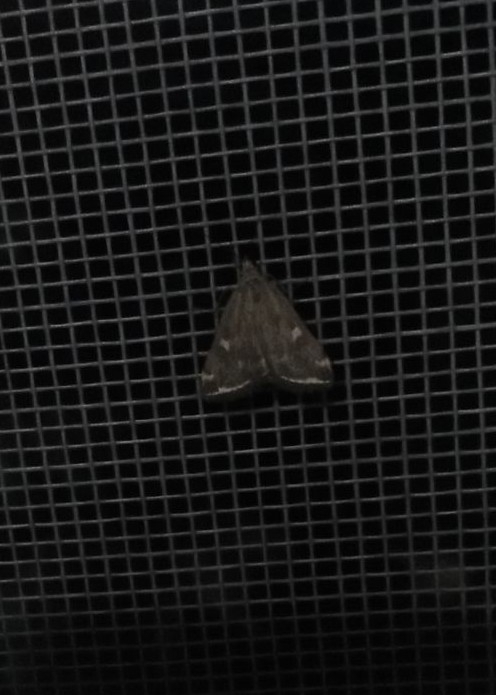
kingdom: Animalia
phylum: Arthropoda
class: Insecta
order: Lepidoptera
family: Crambidae
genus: Loxostege
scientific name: Loxostege sticticalis
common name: Crambid moth
